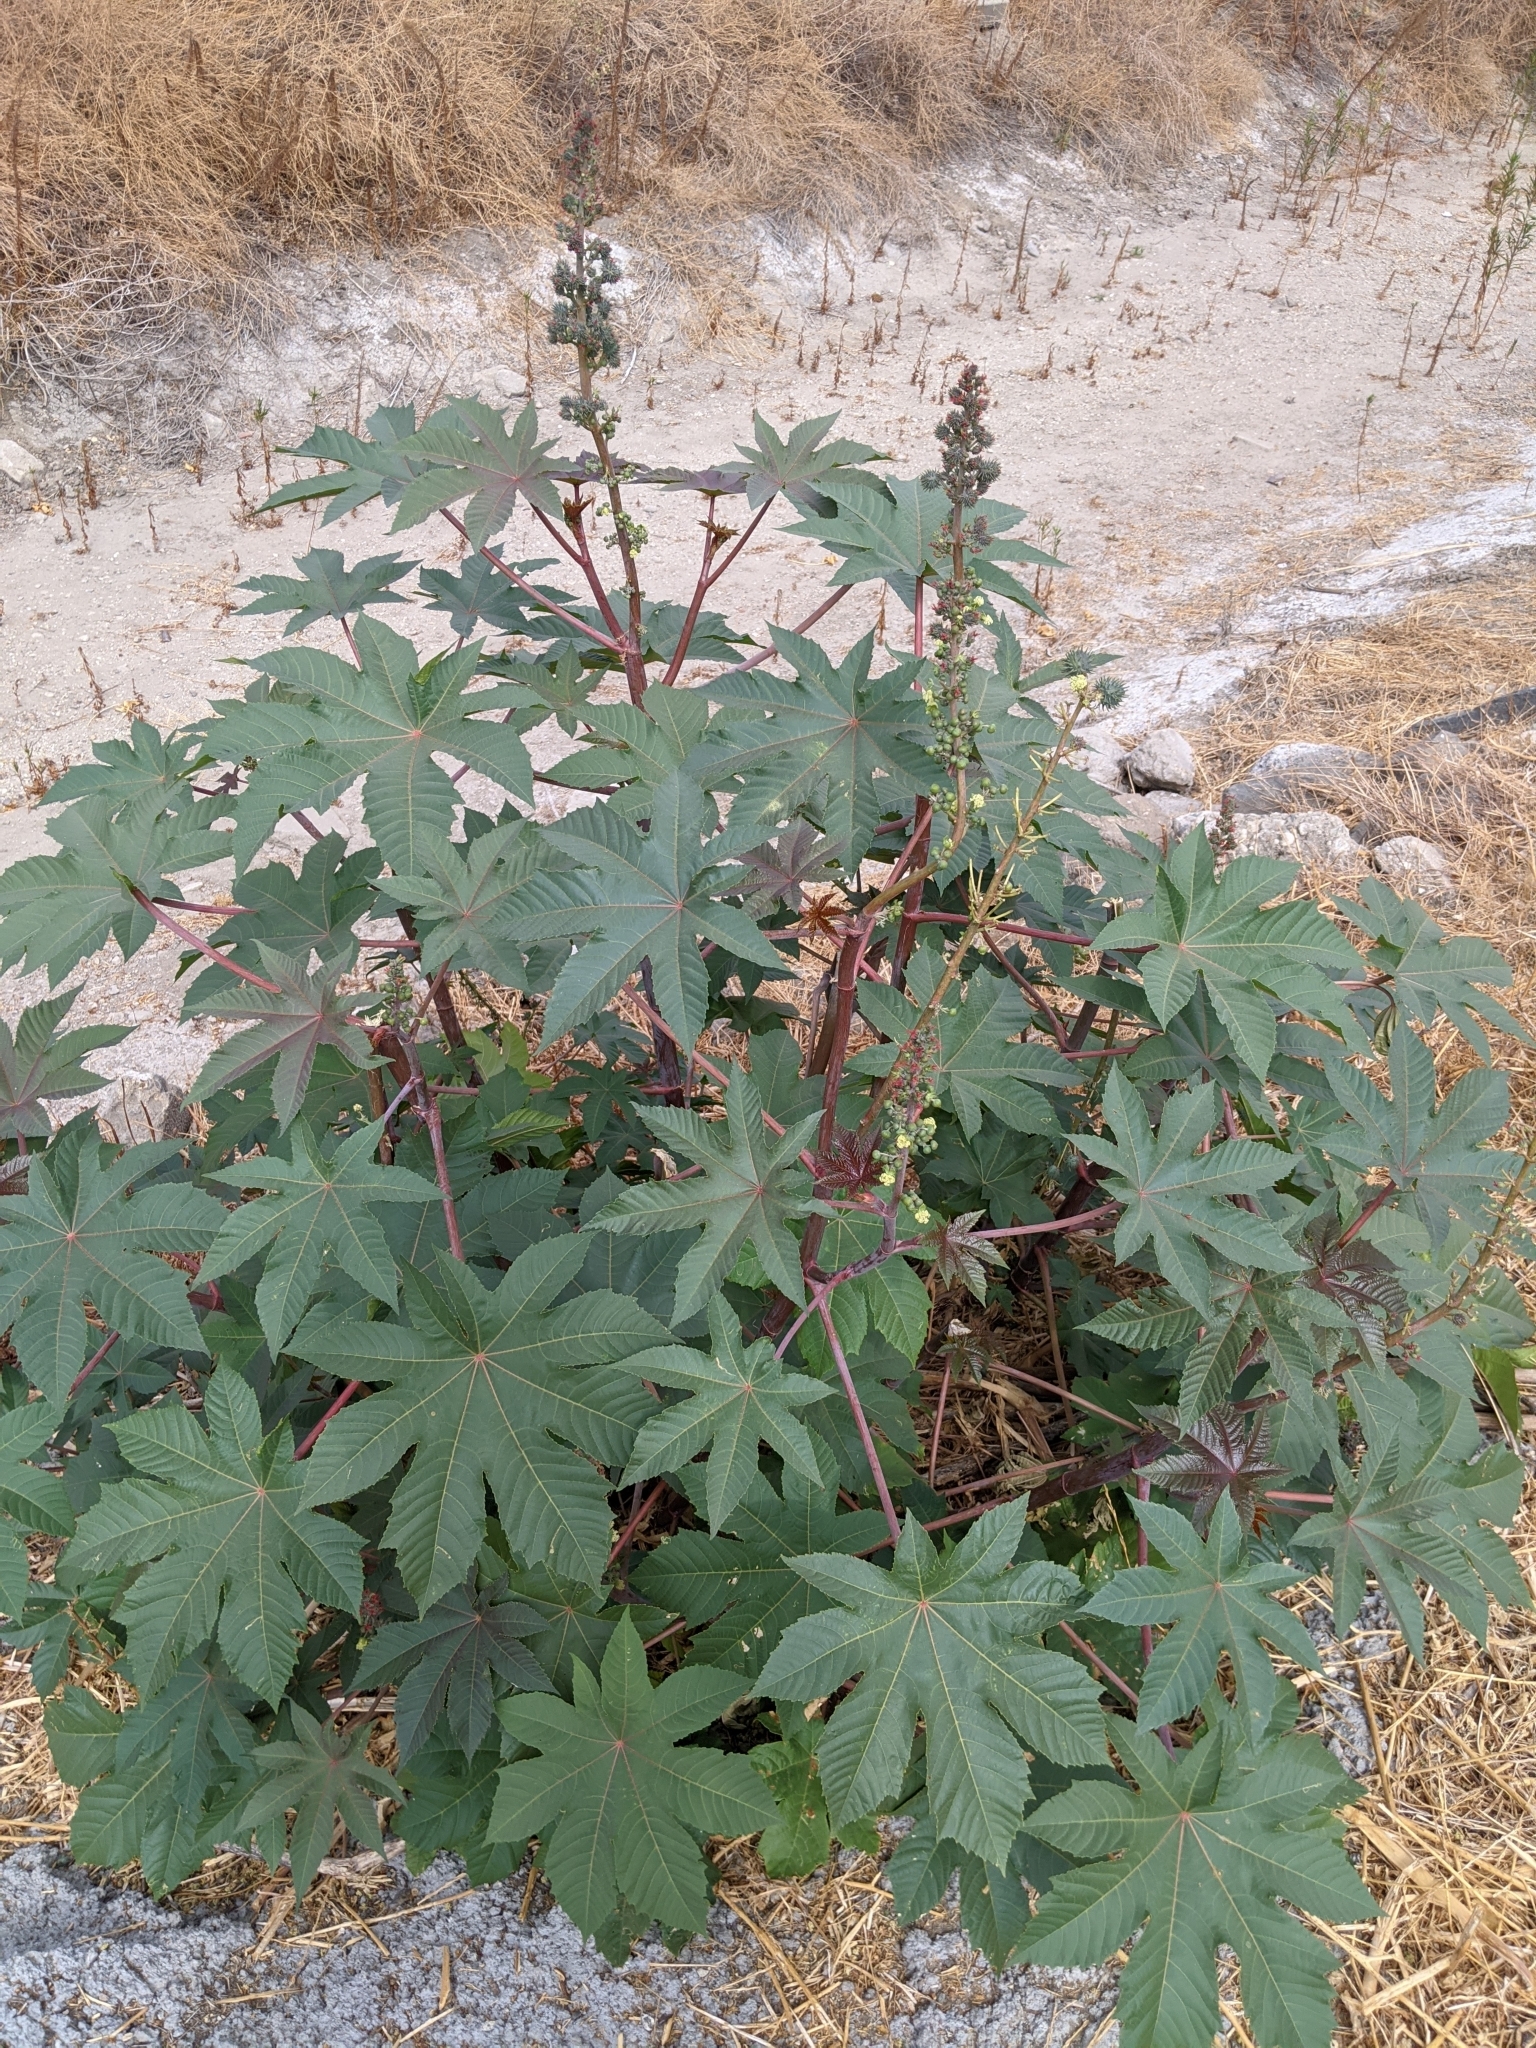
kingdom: Plantae
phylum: Tracheophyta
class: Magnoliopsida
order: Malpighiales
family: Euphorbiaceae
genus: Ricinus
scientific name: Ricinus communis
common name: Castor-oil-plant
